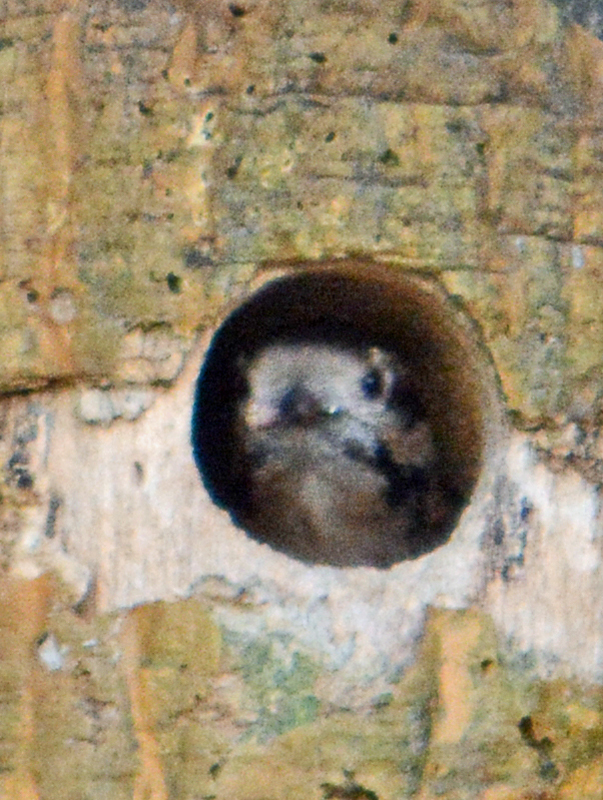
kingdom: Animalia
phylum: Chordata
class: Aves
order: Piciformes
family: Picidae
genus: Dryobates
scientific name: Dryobates scalaris
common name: Ladder-backed woodpecker
